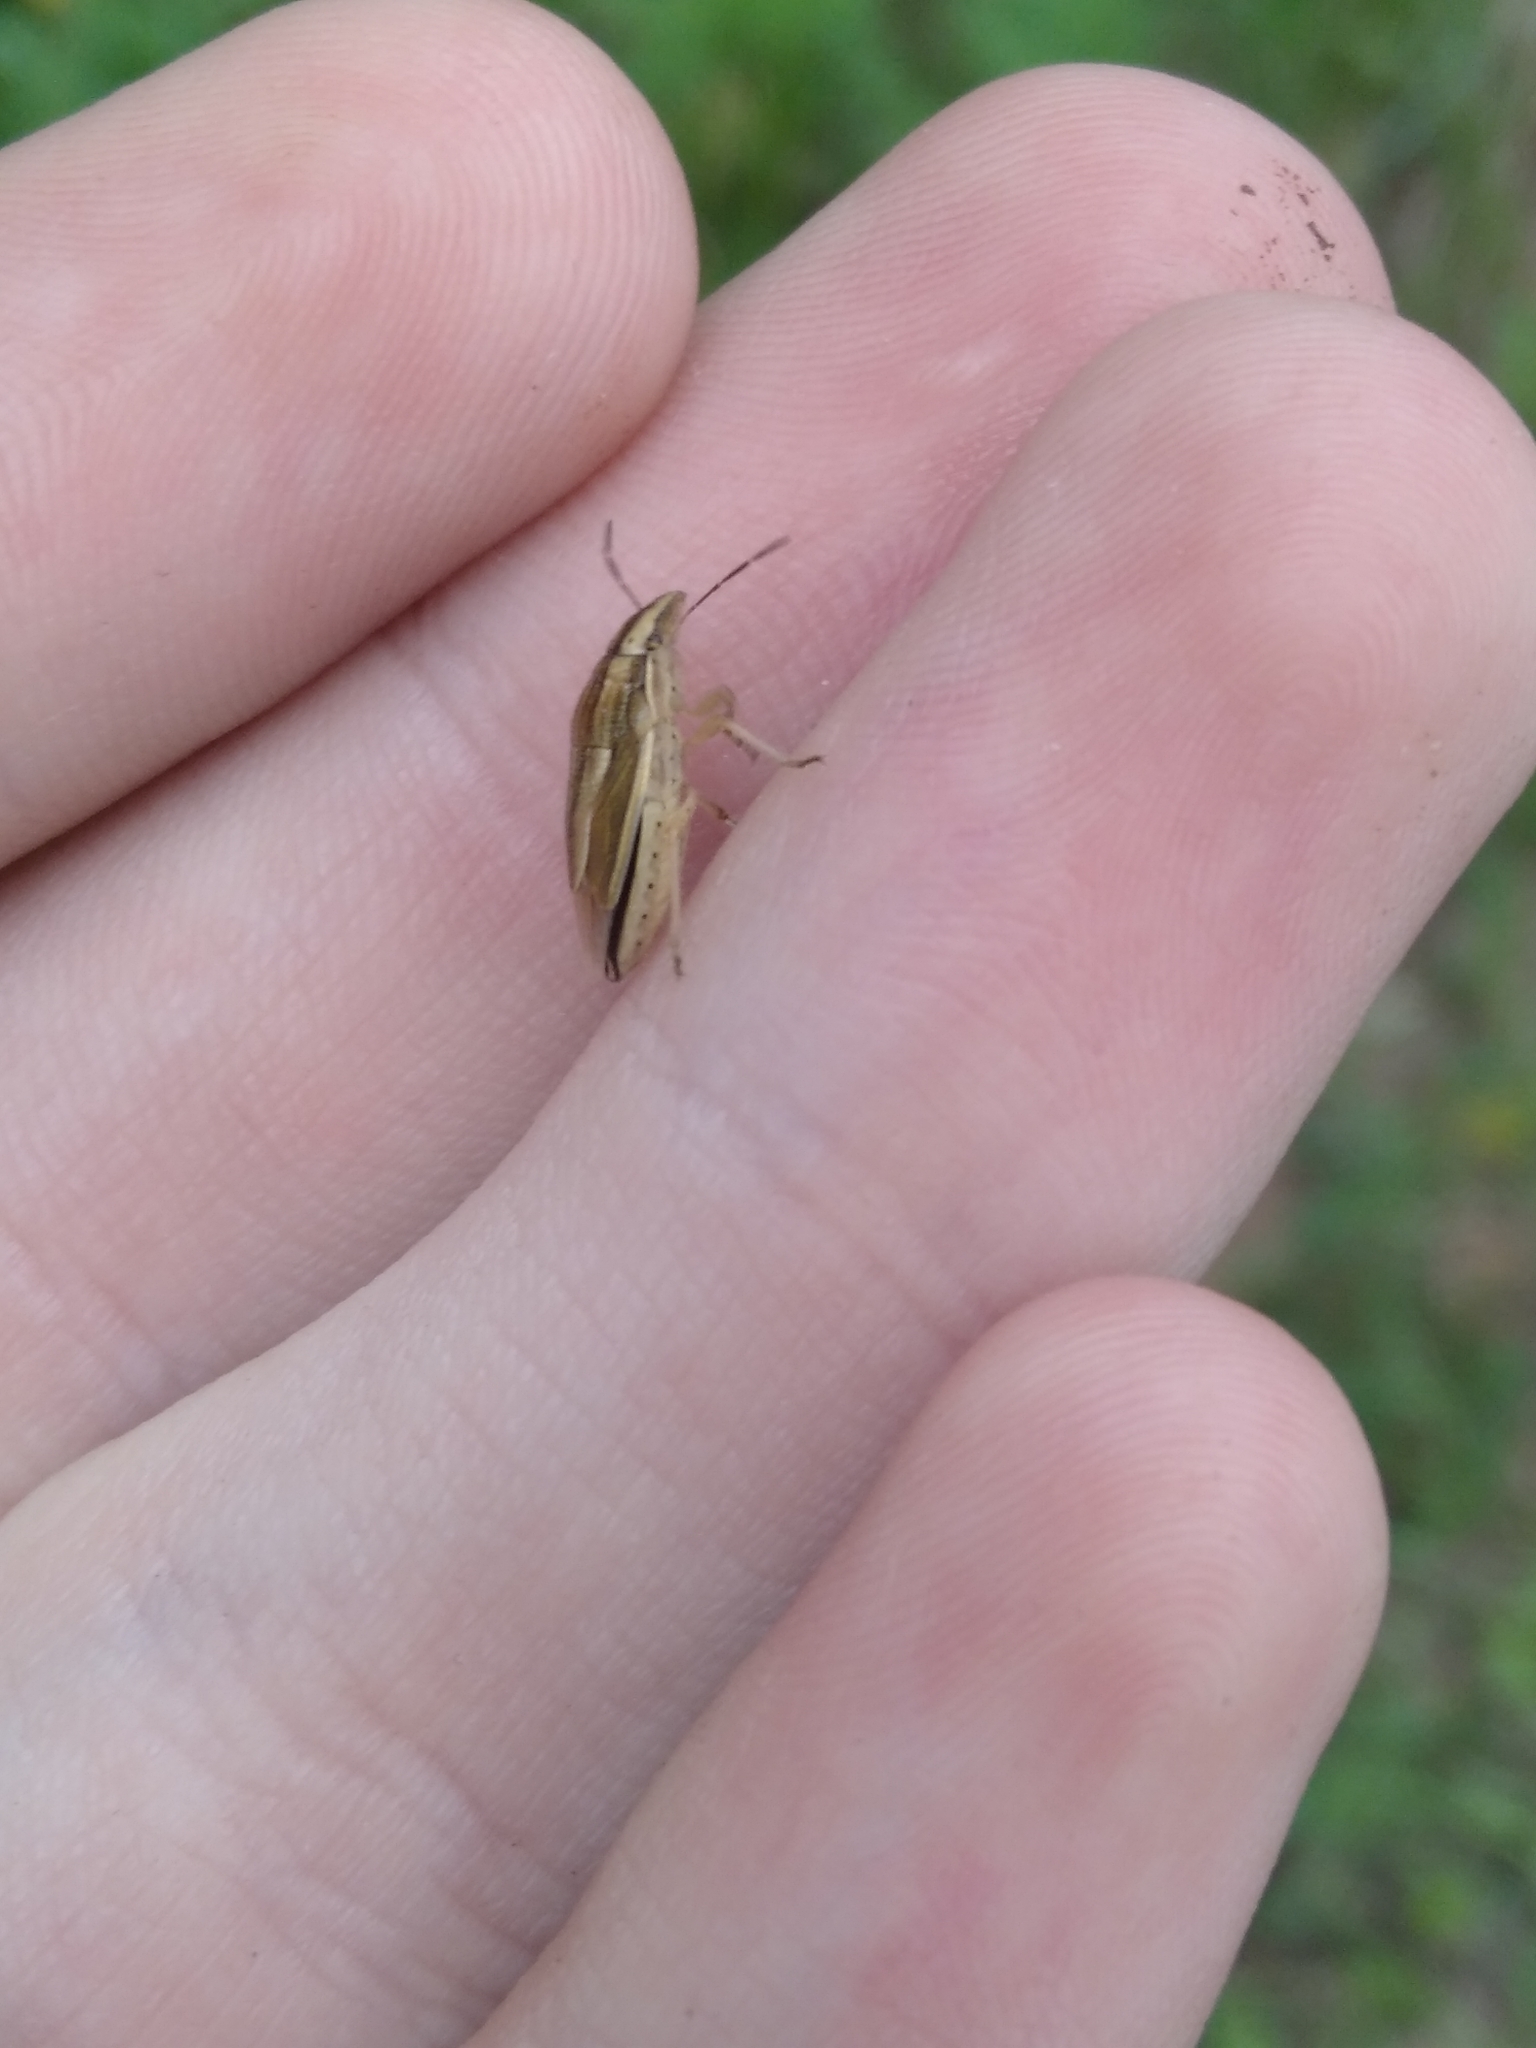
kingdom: Animalia
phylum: Arthropoda
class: Insecta
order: Hemiptera
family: Pentatomidae
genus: Aelia
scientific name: Aelia acuminata
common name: Bishop's mitre
